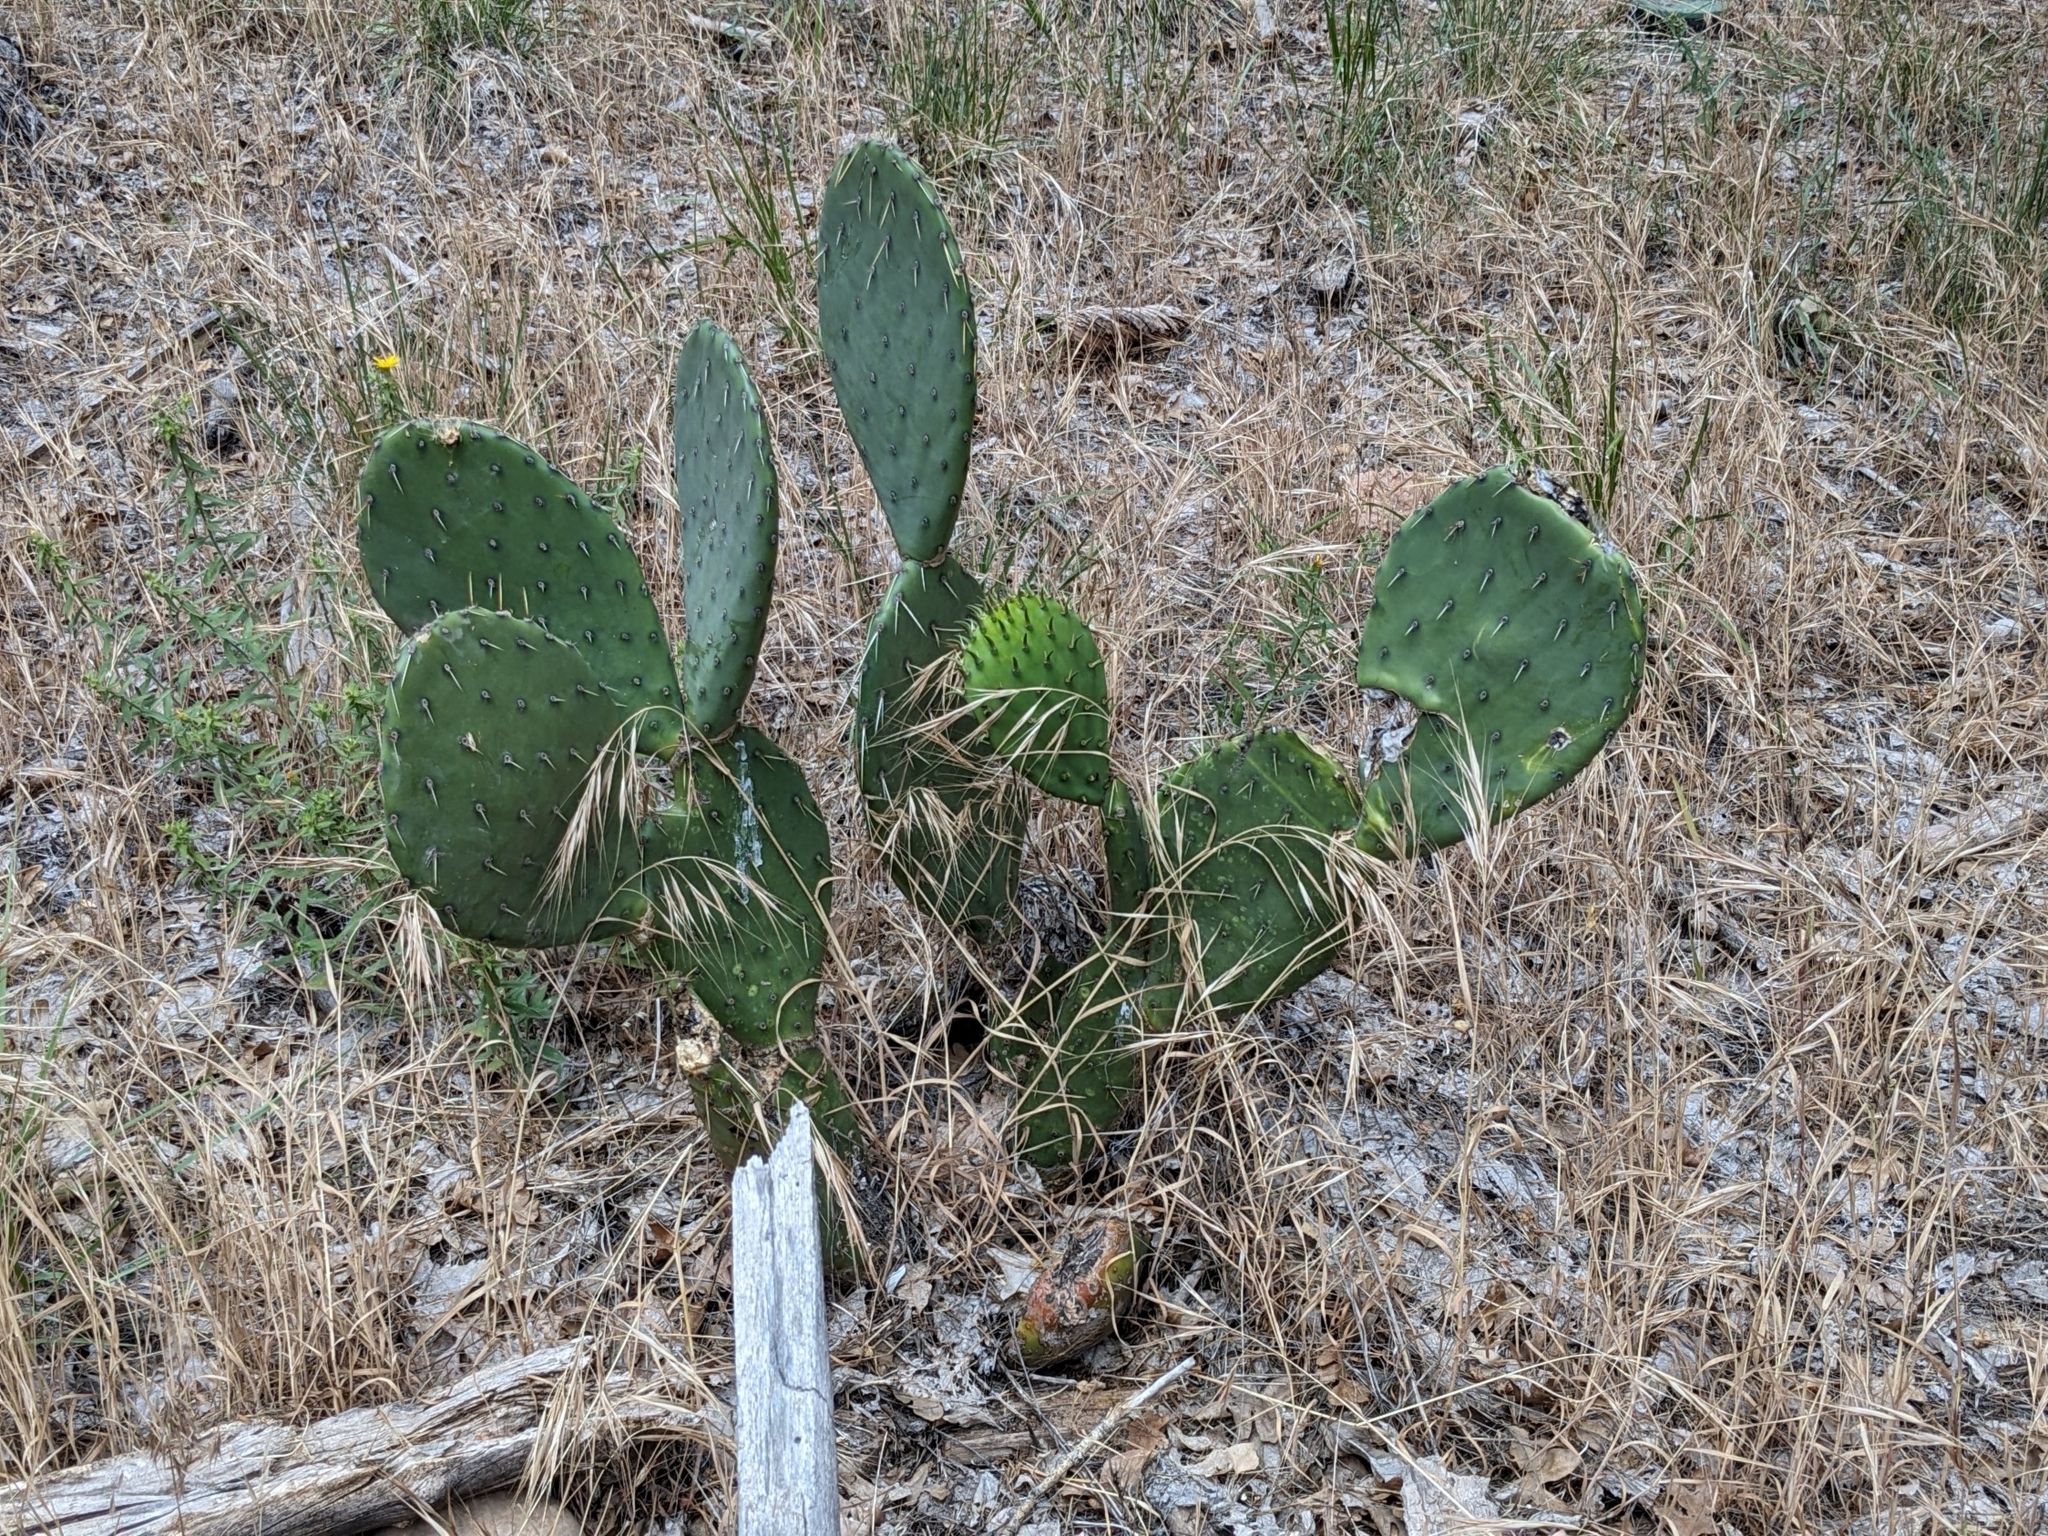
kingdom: Plantae
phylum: Tracheophyta
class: Magnoliopsida
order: Caryophyllales
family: Cactaceae
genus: Opuntia
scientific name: Opuntia engelmannii
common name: Cactus-apple
